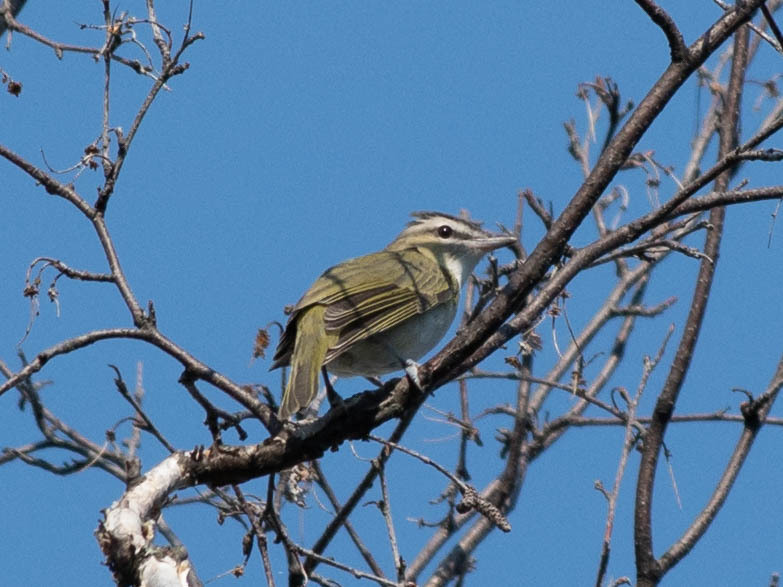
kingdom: Animalia
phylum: Chordata
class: Aves
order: Passeriformes
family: Vireonidae
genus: Vireo
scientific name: Vireo olivaceus
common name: Red-eyed vireo
